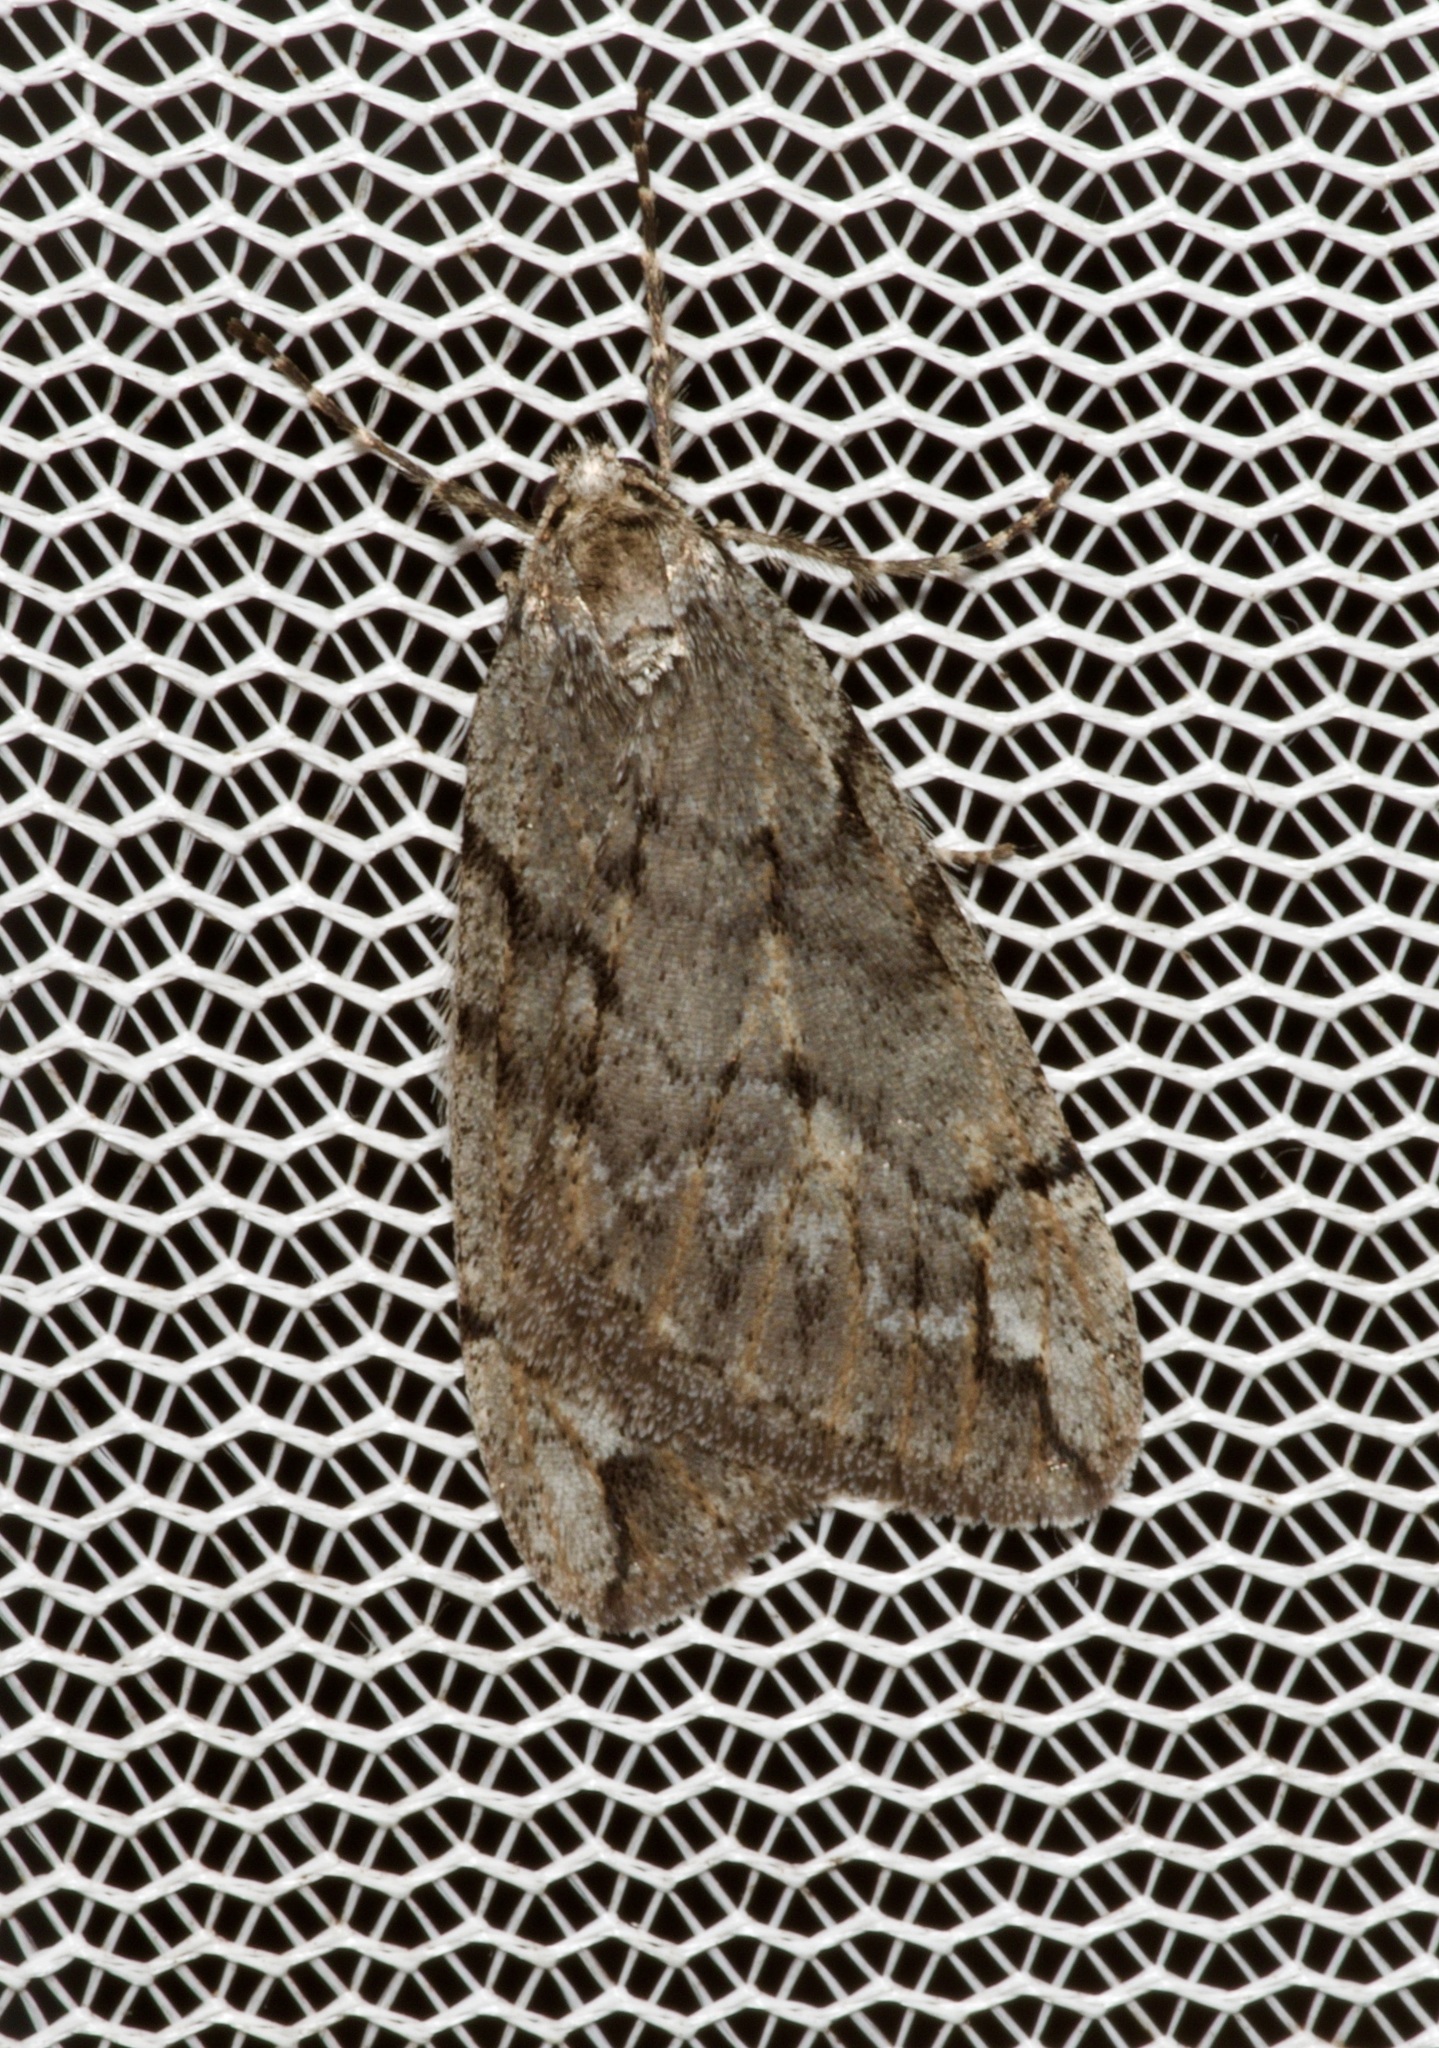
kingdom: Animalia
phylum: Arthropoda
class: Insecta
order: Lepidoptera
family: Geometridae
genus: Paleacrita
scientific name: Paleacrita vernata
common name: Spring cankerworm
